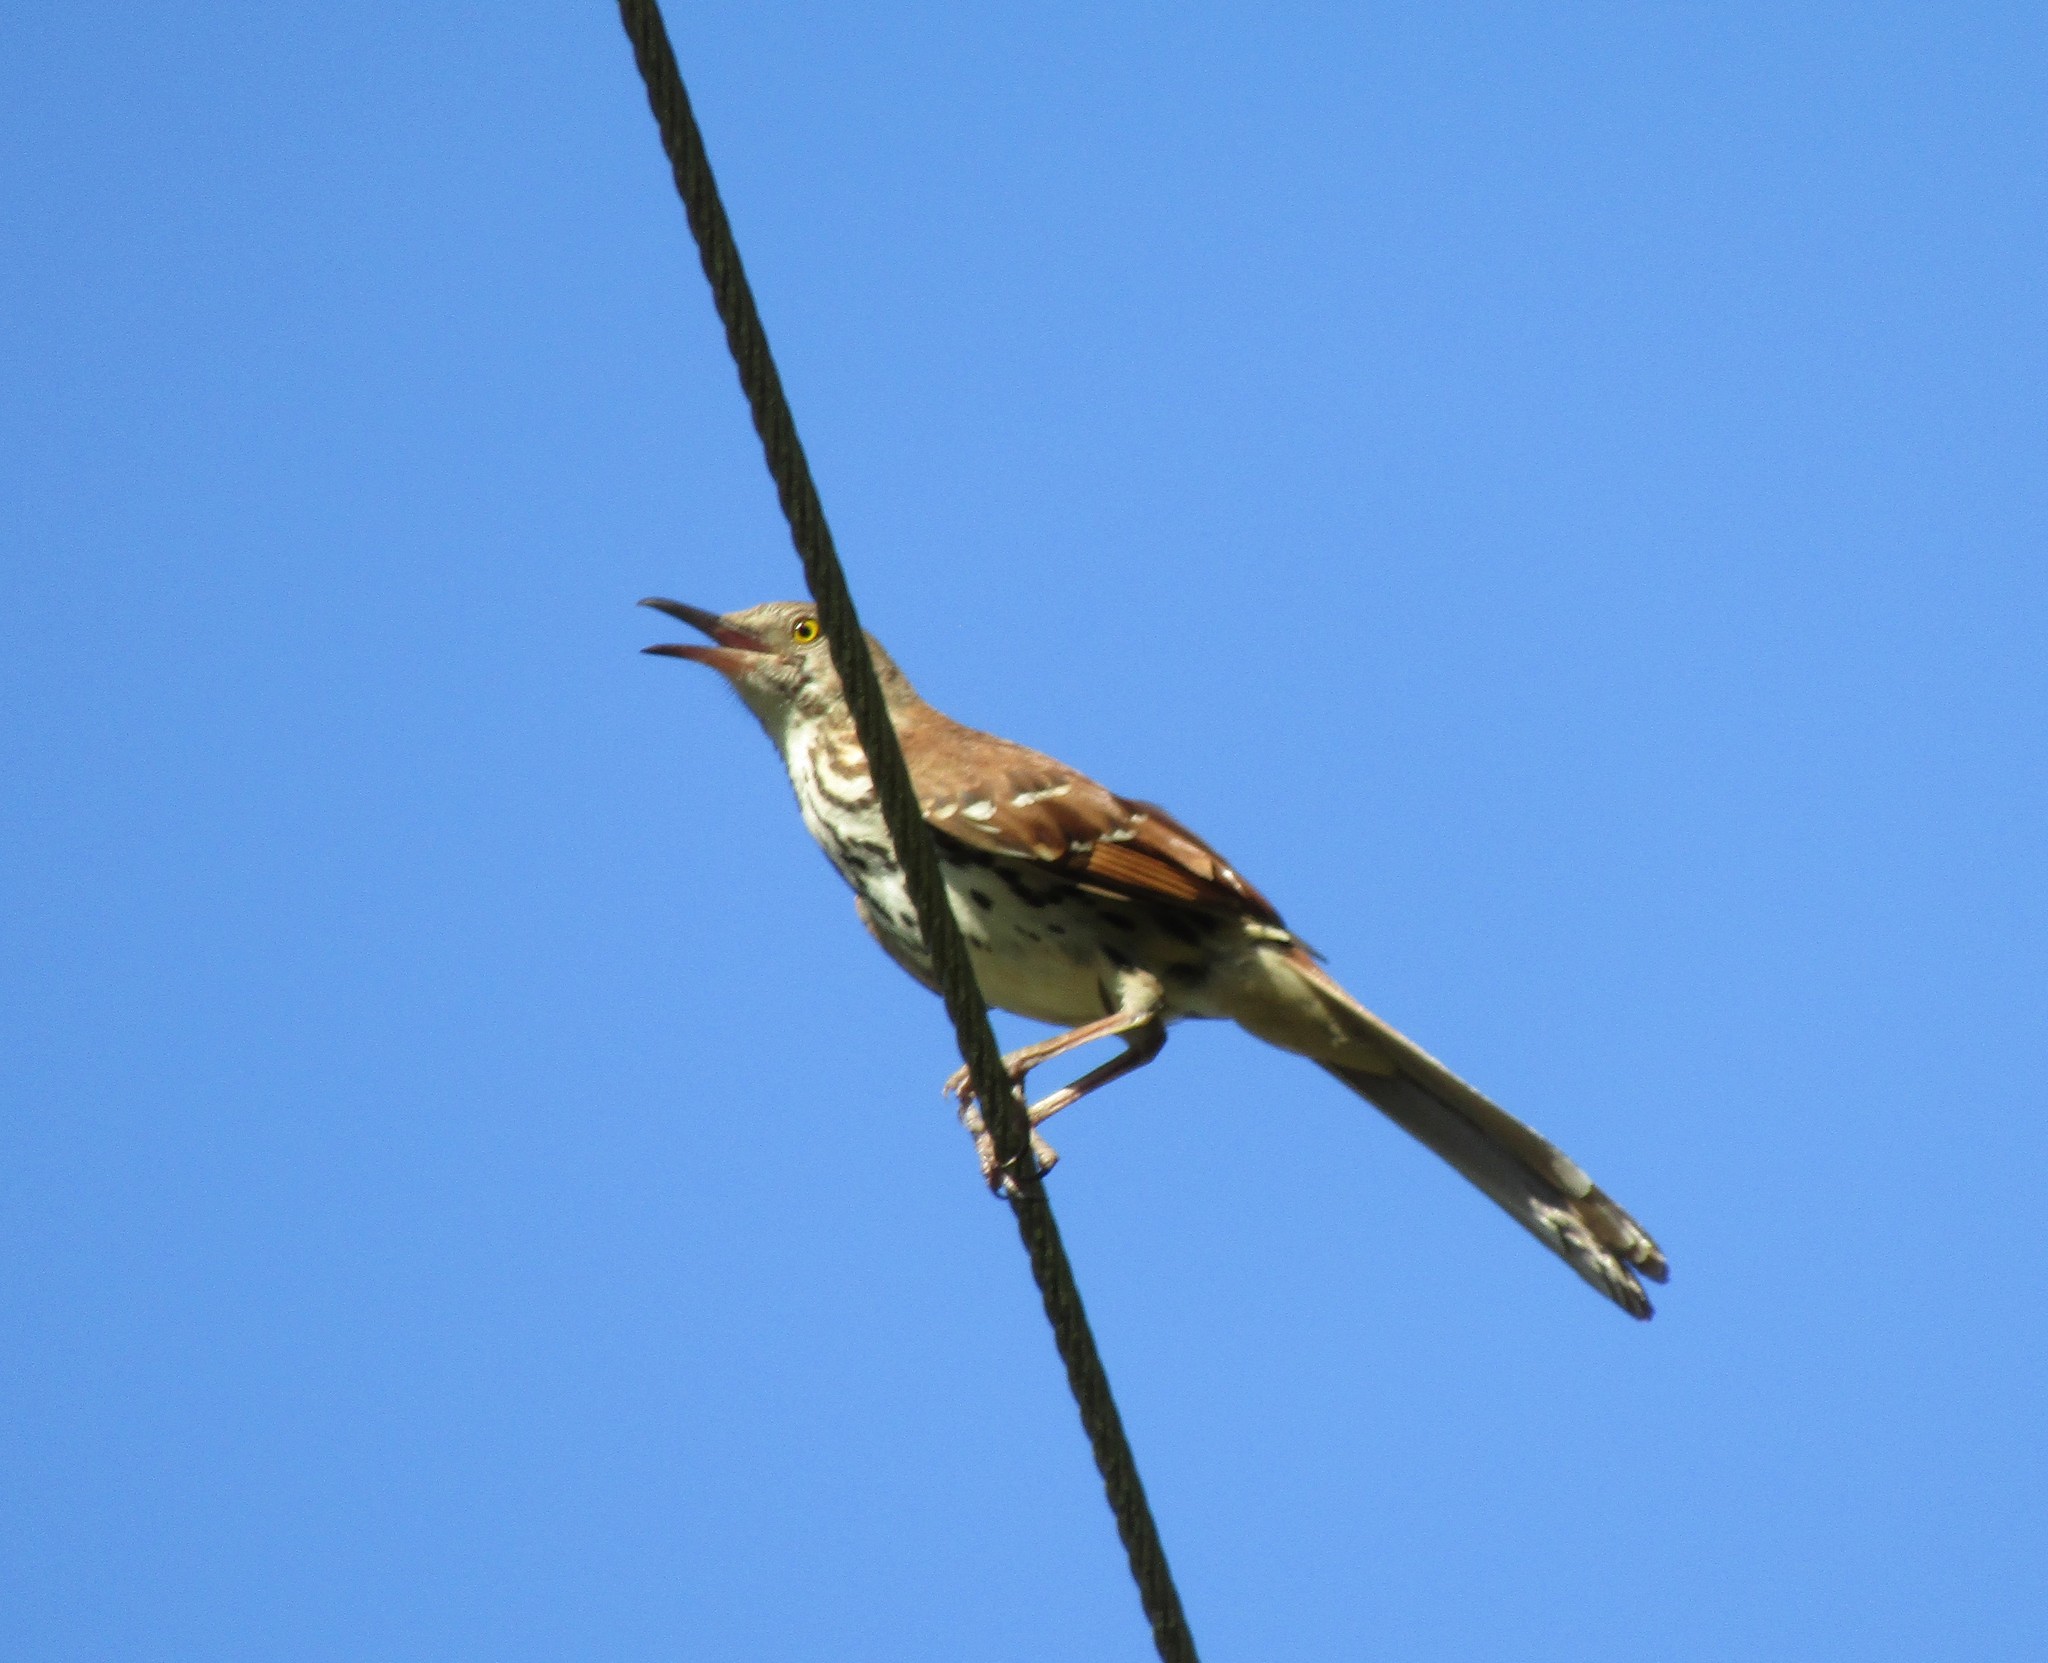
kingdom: Animalia
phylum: Chordata
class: Aves
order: Passeriformes
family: Mimidae
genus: Toxostoma
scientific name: Toxostoma rufum
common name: Brown thrasher
